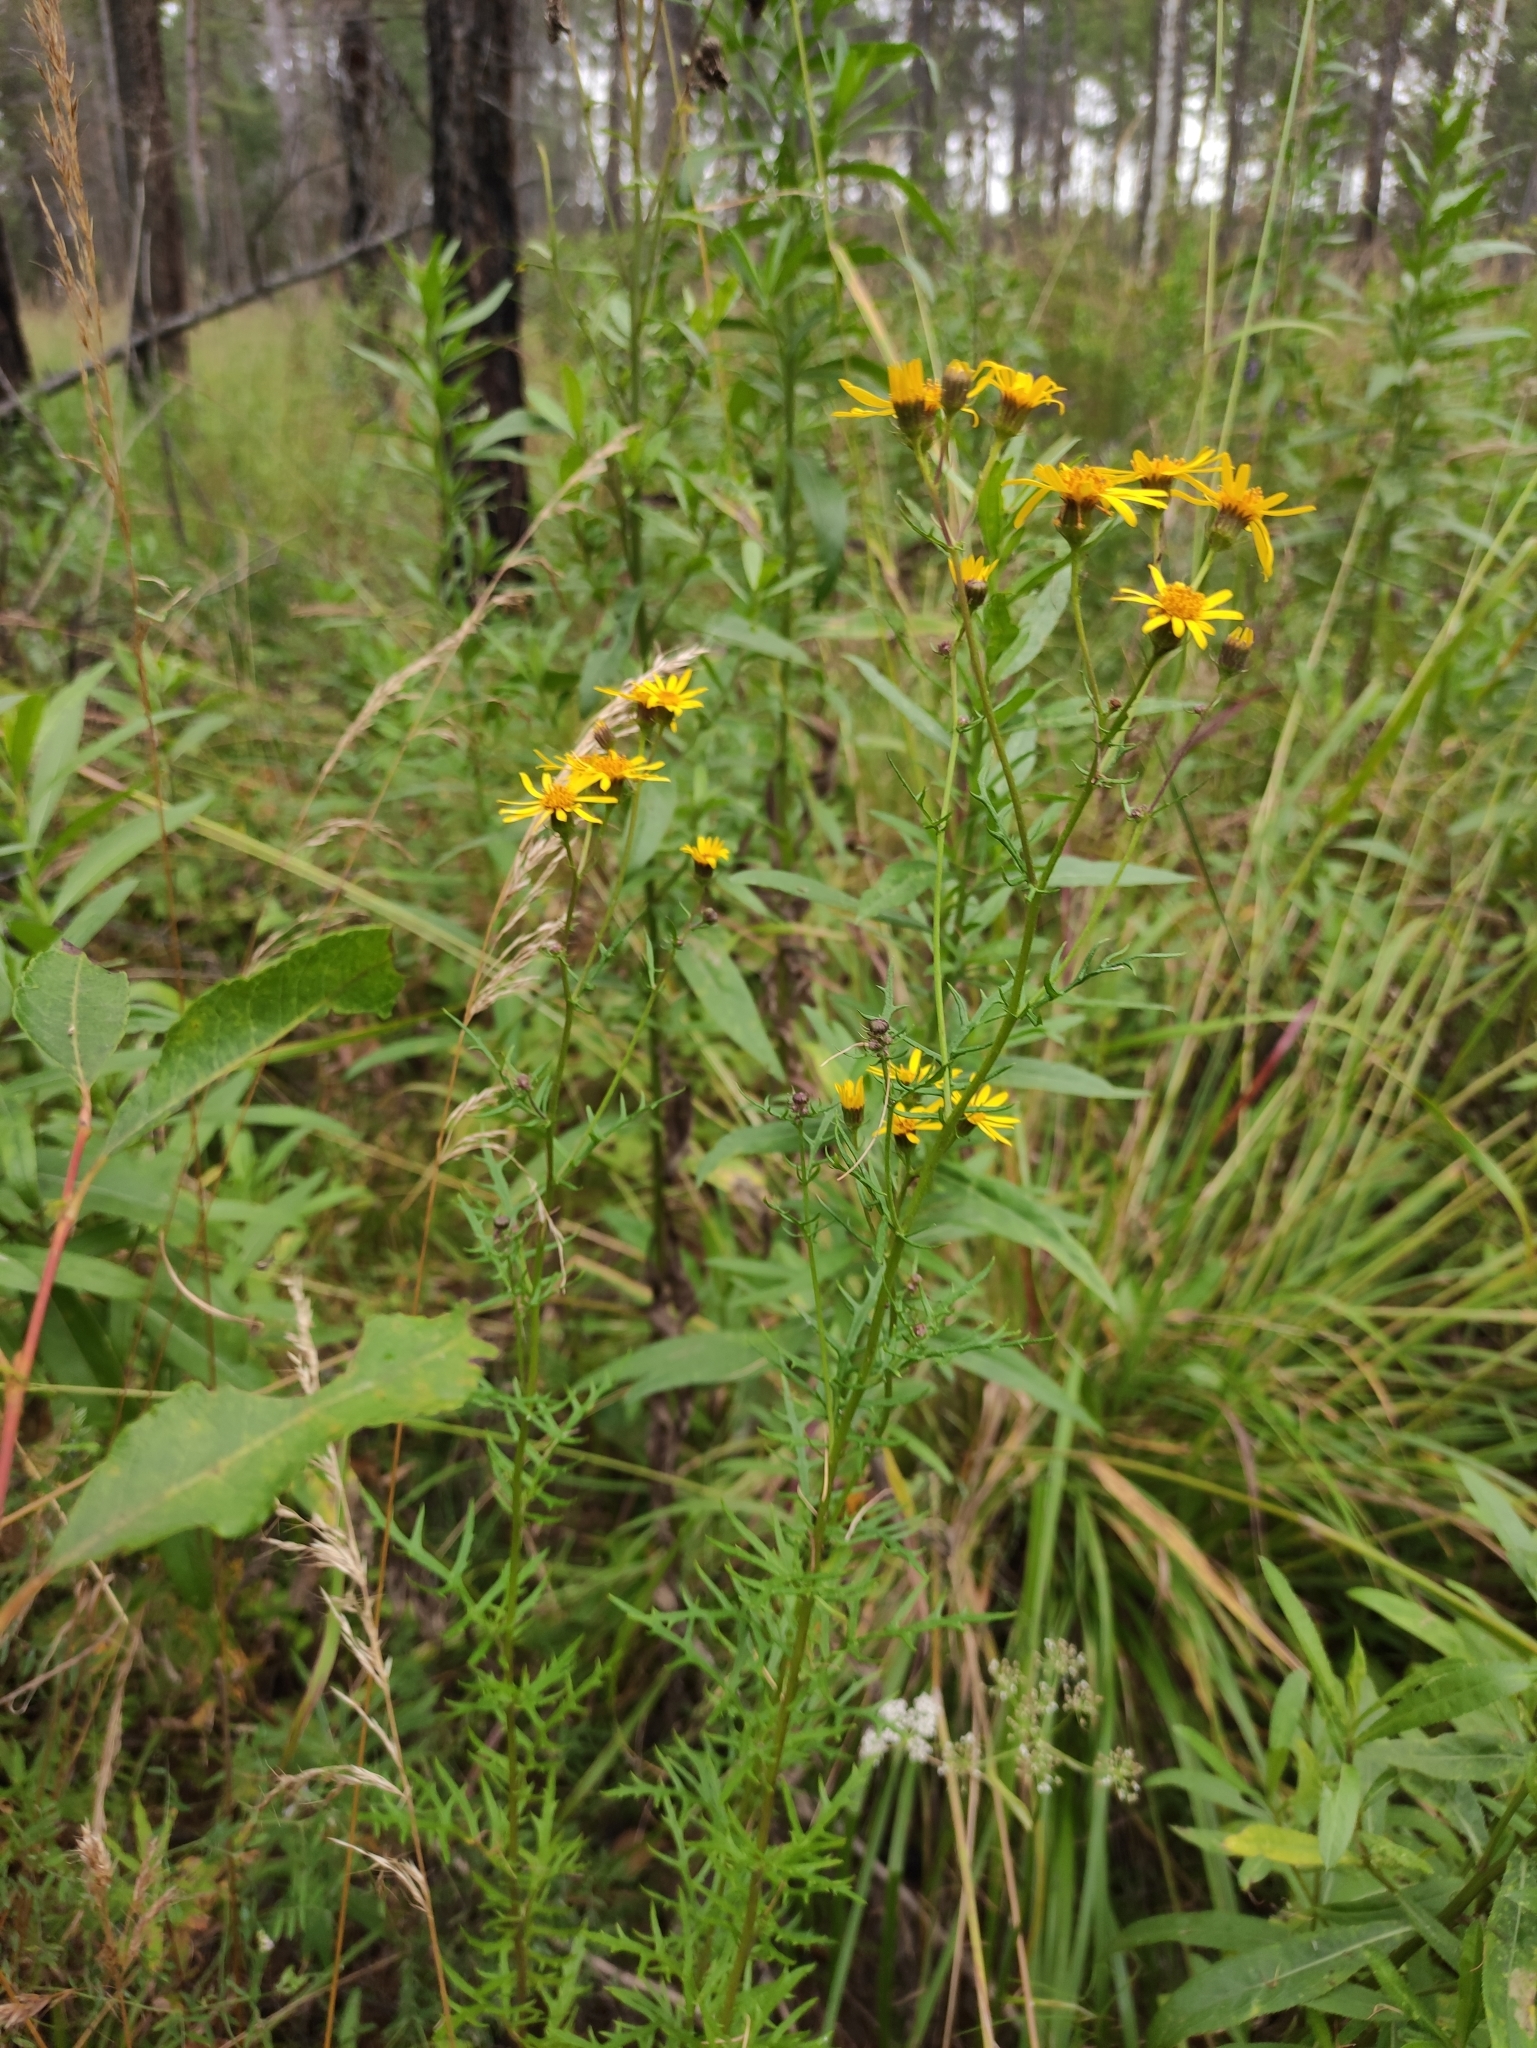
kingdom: Plantae
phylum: Tracheophyta
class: Magnoliopsida
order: Asterales
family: Asteraceae
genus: Jacobaea
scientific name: Jacobaea erucifolia
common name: Hoary ragwort
